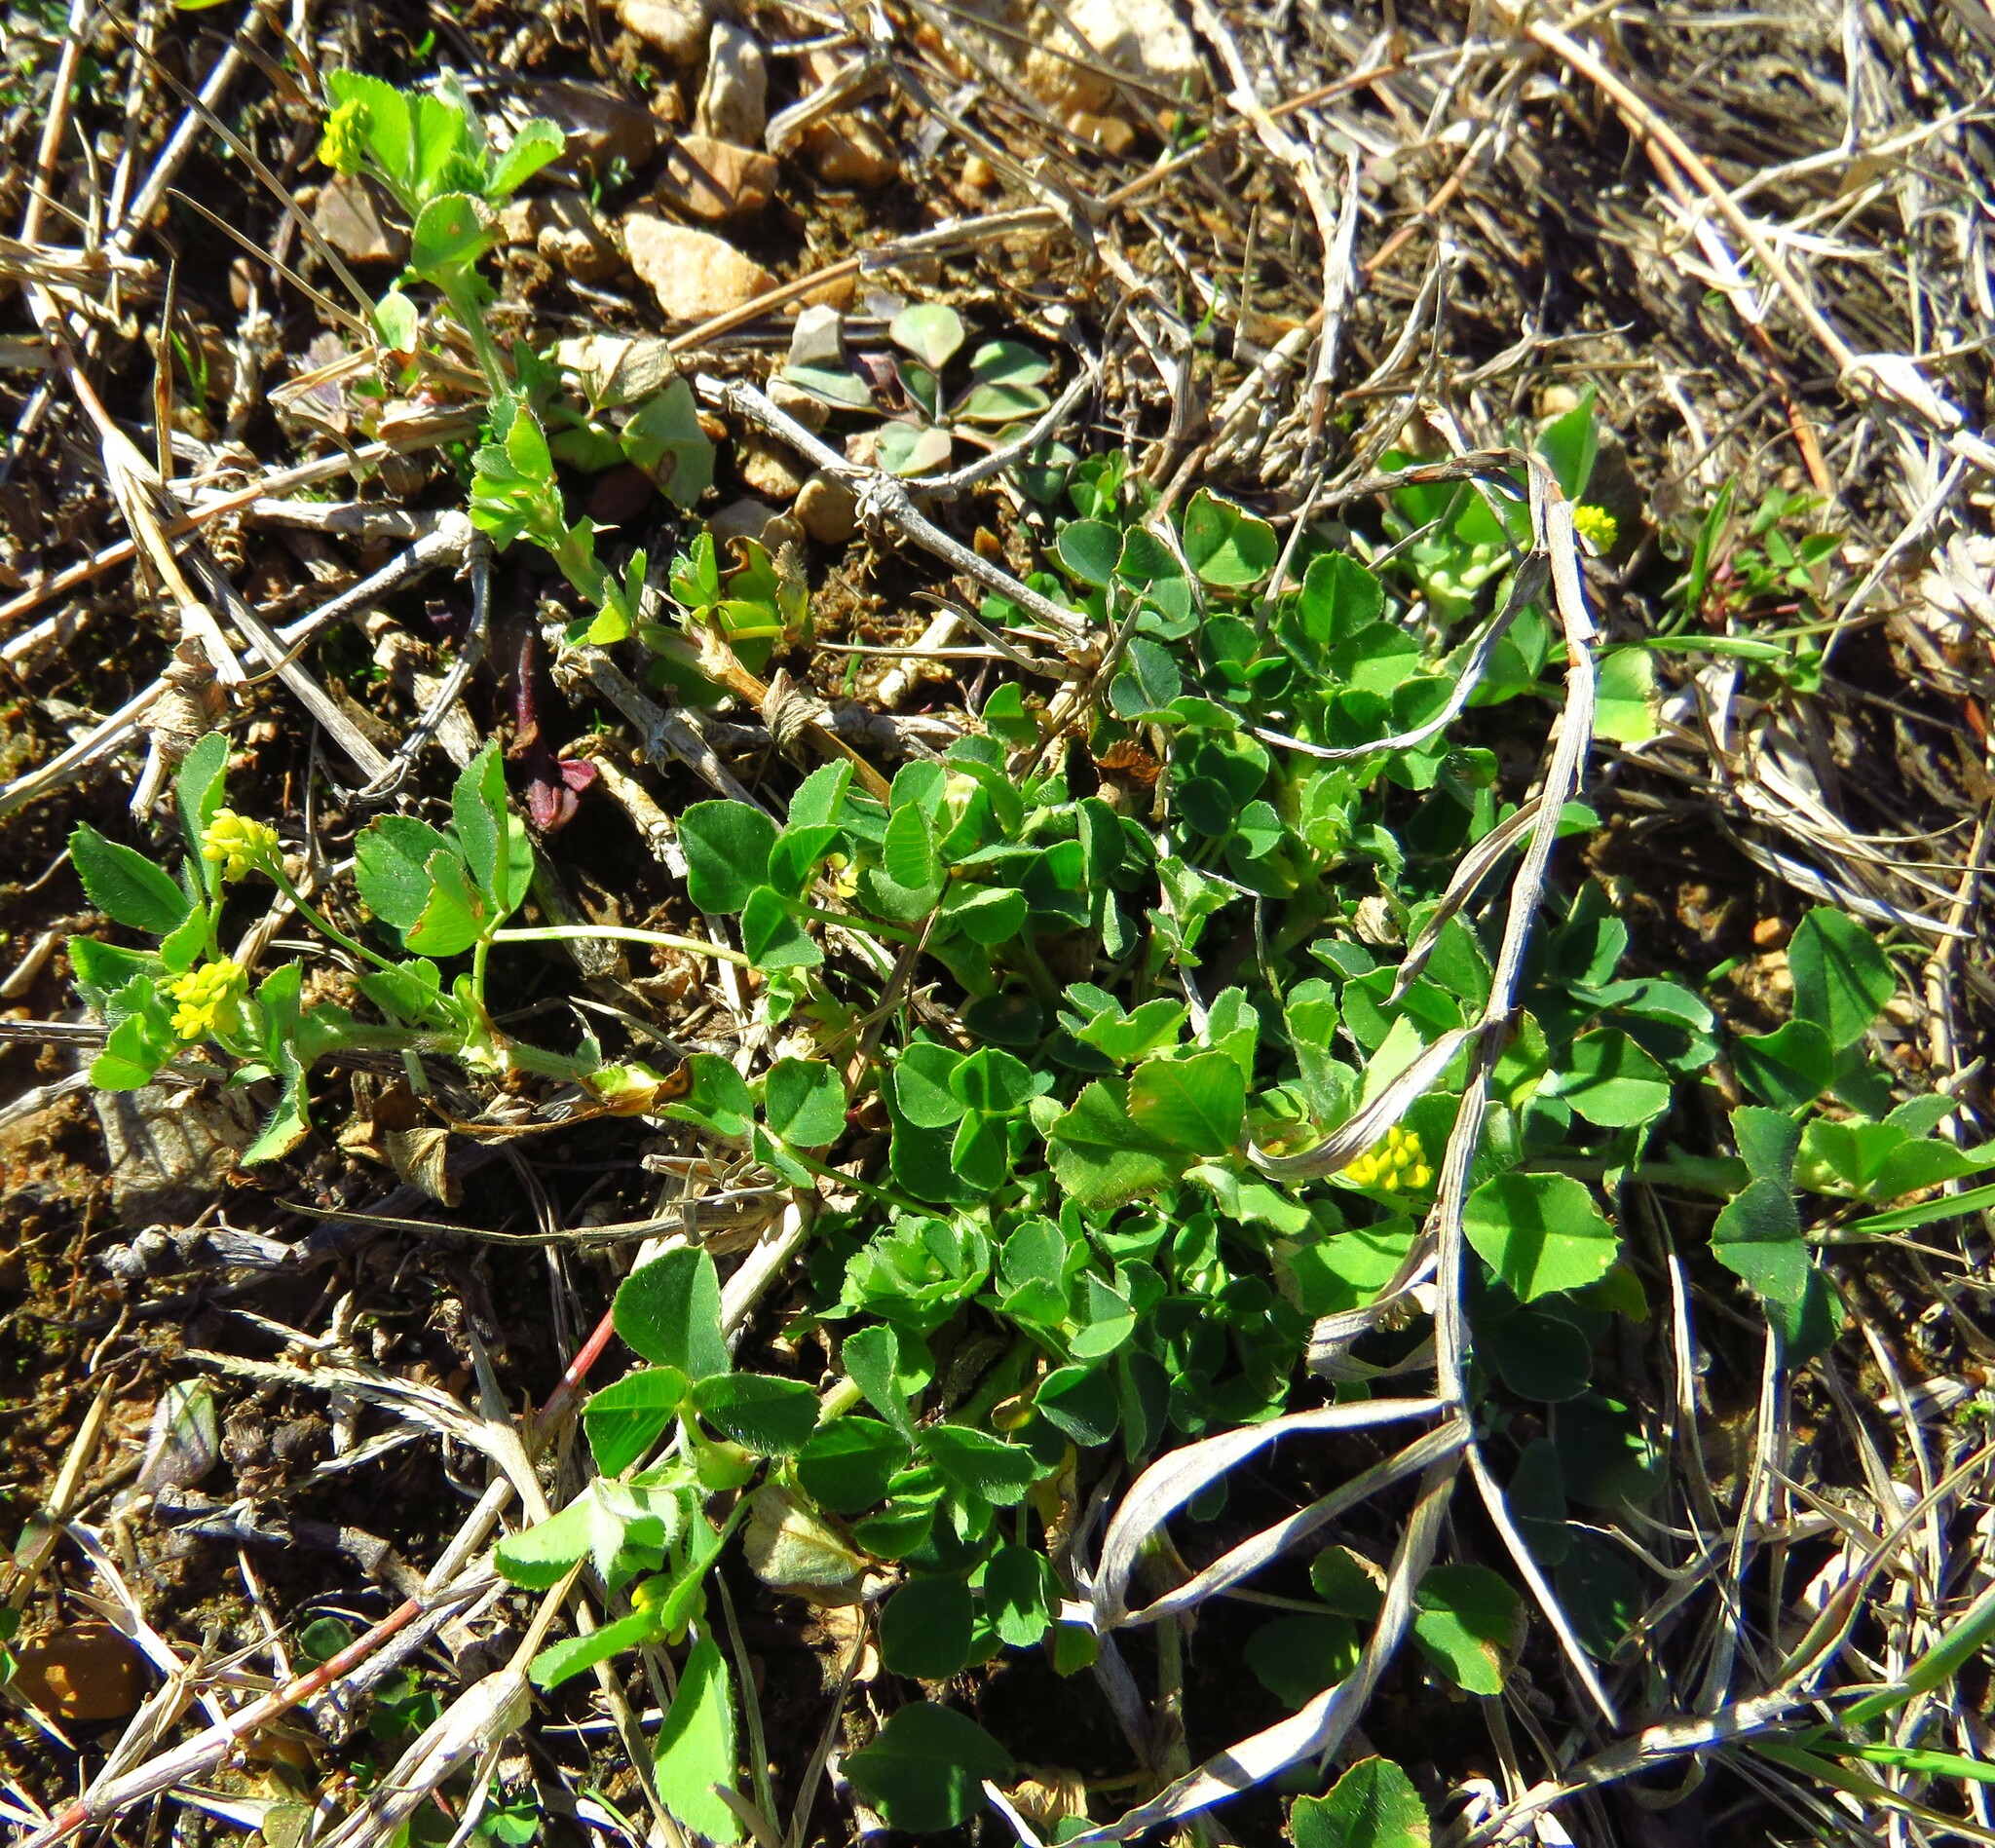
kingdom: Plantae
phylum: Tracheophyta
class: Magnoliopsida
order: Fabales
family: Fabaceae
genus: Medicago
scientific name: Medicago lupulina
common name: Black medick
